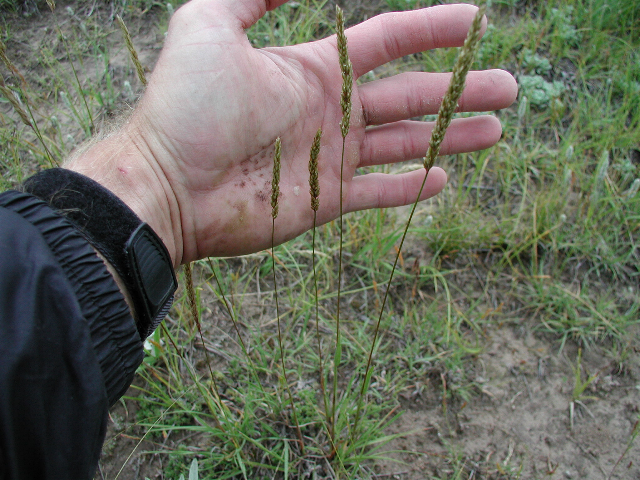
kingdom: Plantae
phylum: Tracheophyta
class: Liliopsida
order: Poales
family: Poaceae
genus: Koeleria
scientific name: Koeleria macrantha
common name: Crested hair-grass
